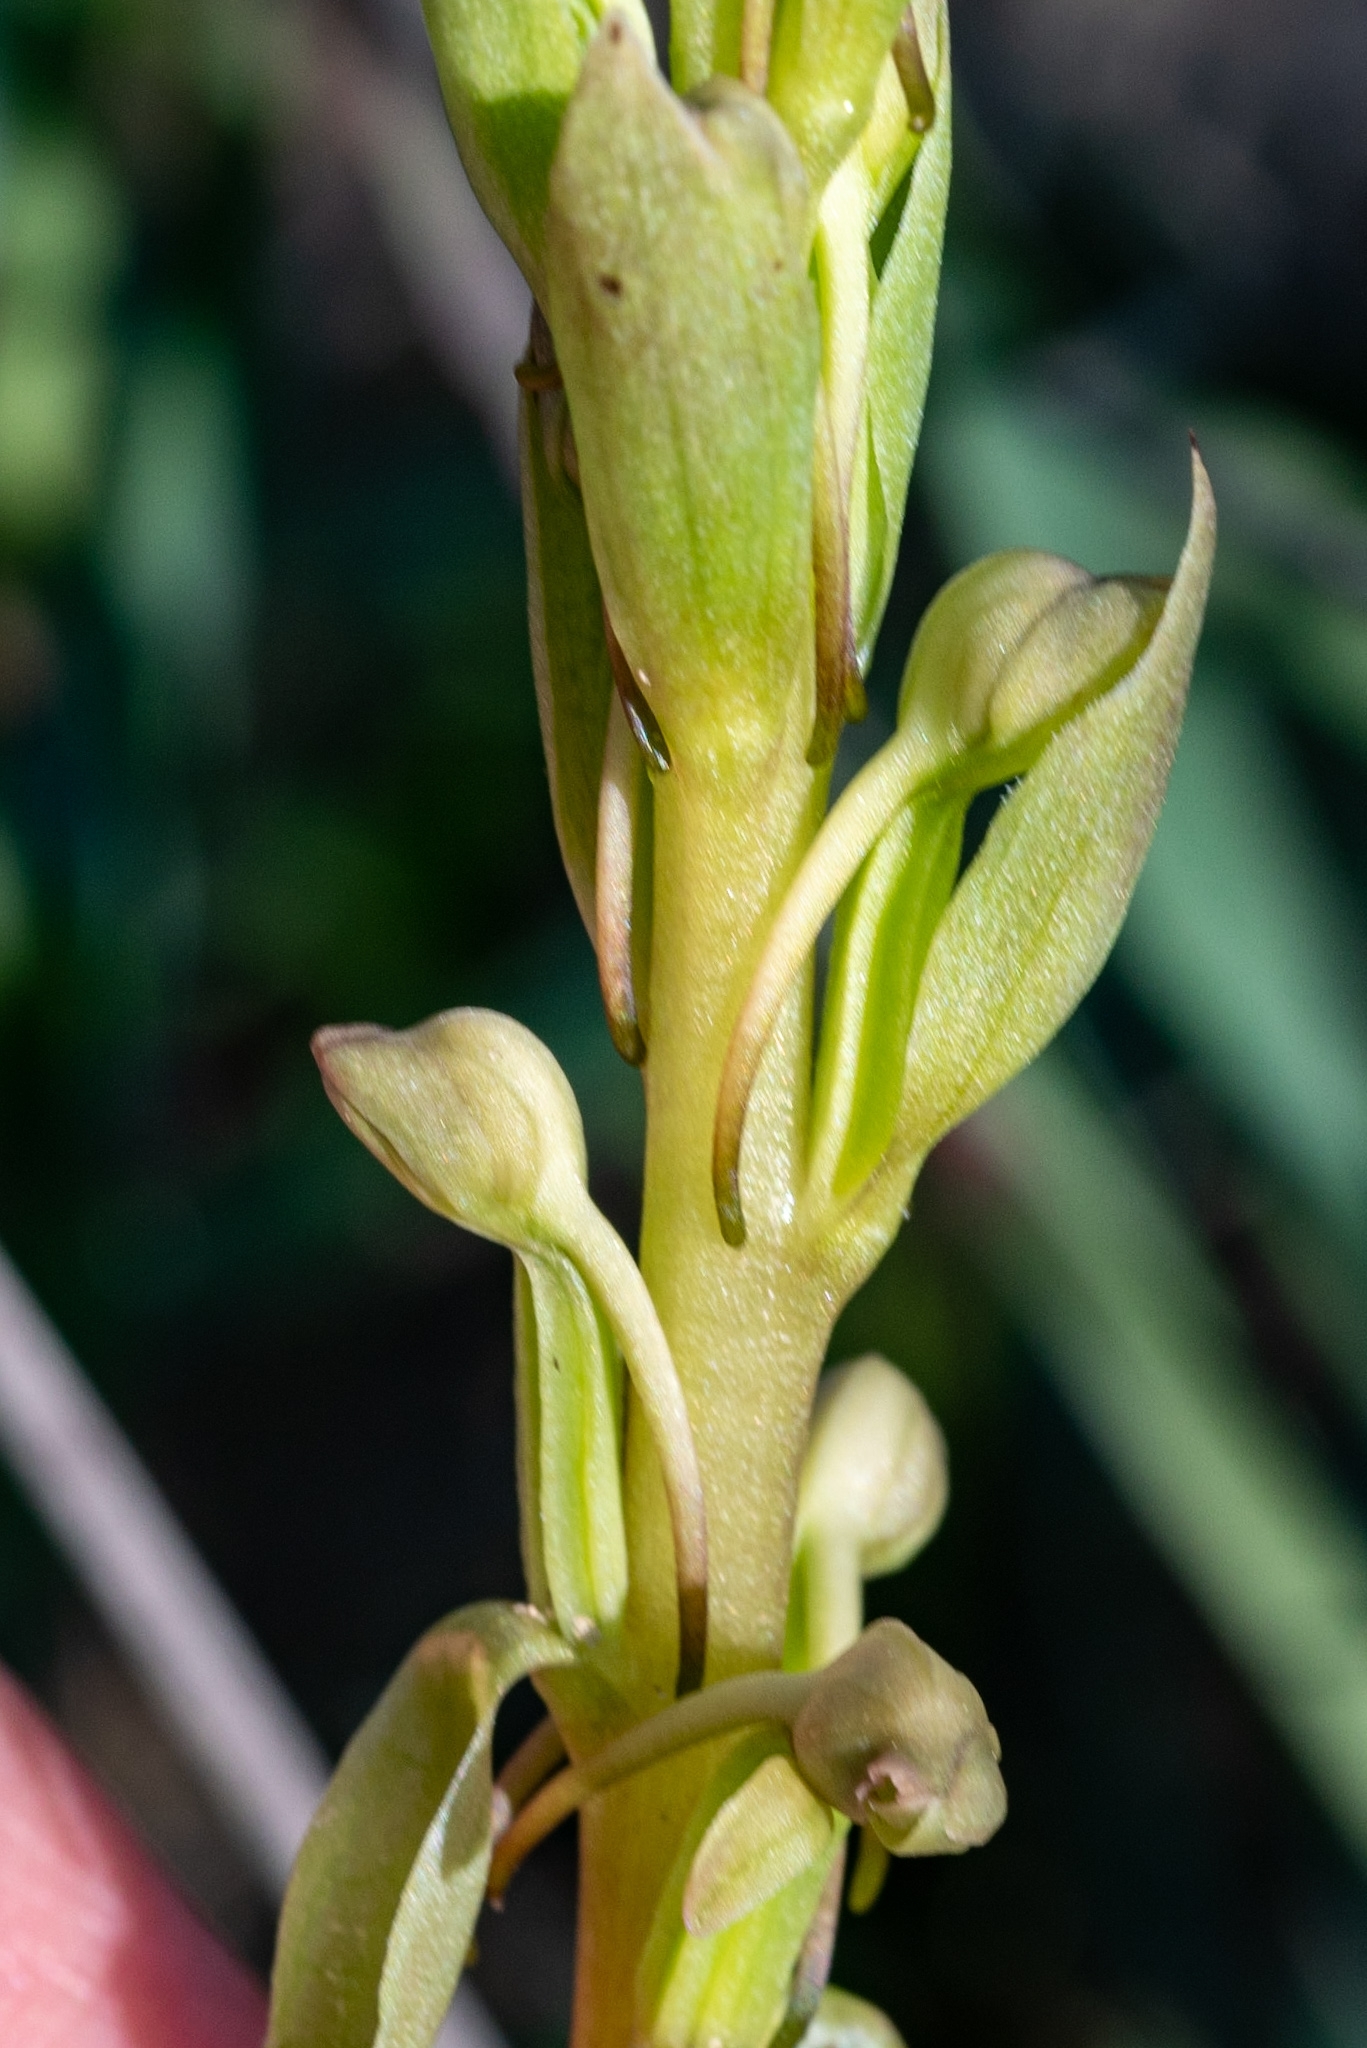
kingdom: Plantae
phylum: Tracheophyta
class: Liliopsida
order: Asparagales
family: Orchidaceae
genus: Satyrium
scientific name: Satyrium humile
